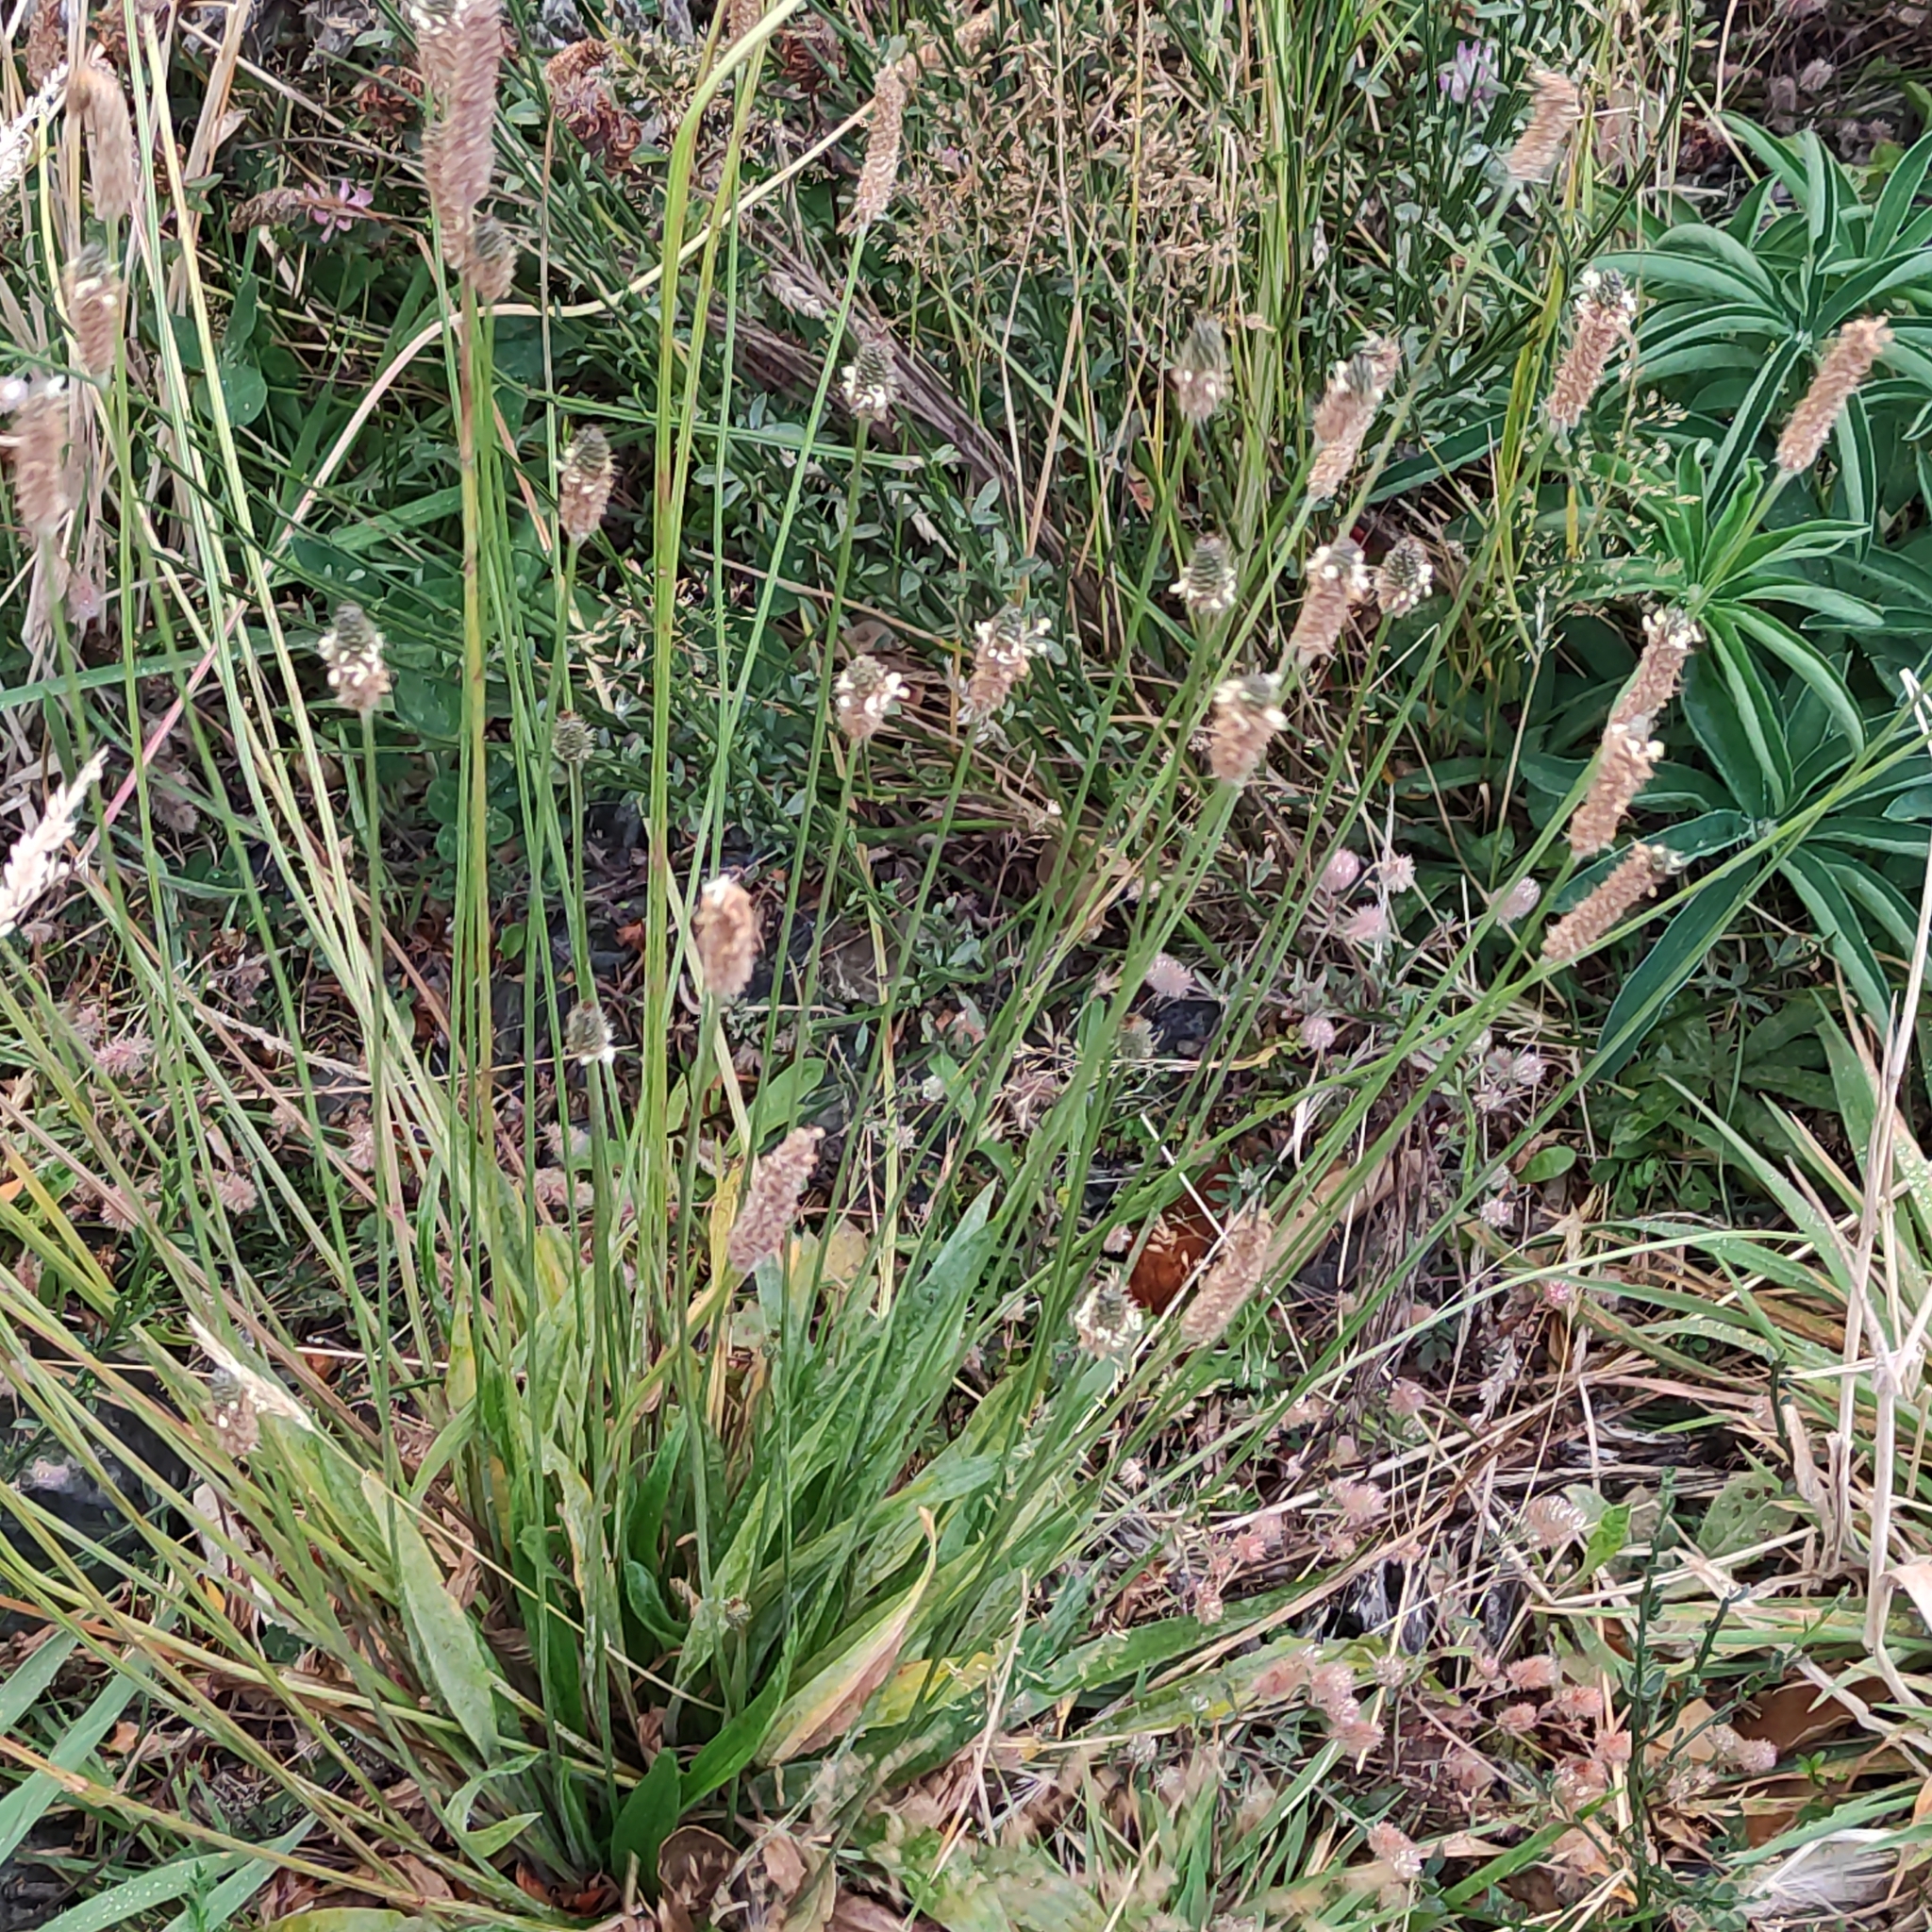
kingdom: Plantae
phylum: Tracheophyta
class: Magnoliopsida
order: Lamiales
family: Plantaginaceae
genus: Plantago
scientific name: Plantago lanceolata
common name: Ribwort plantain
